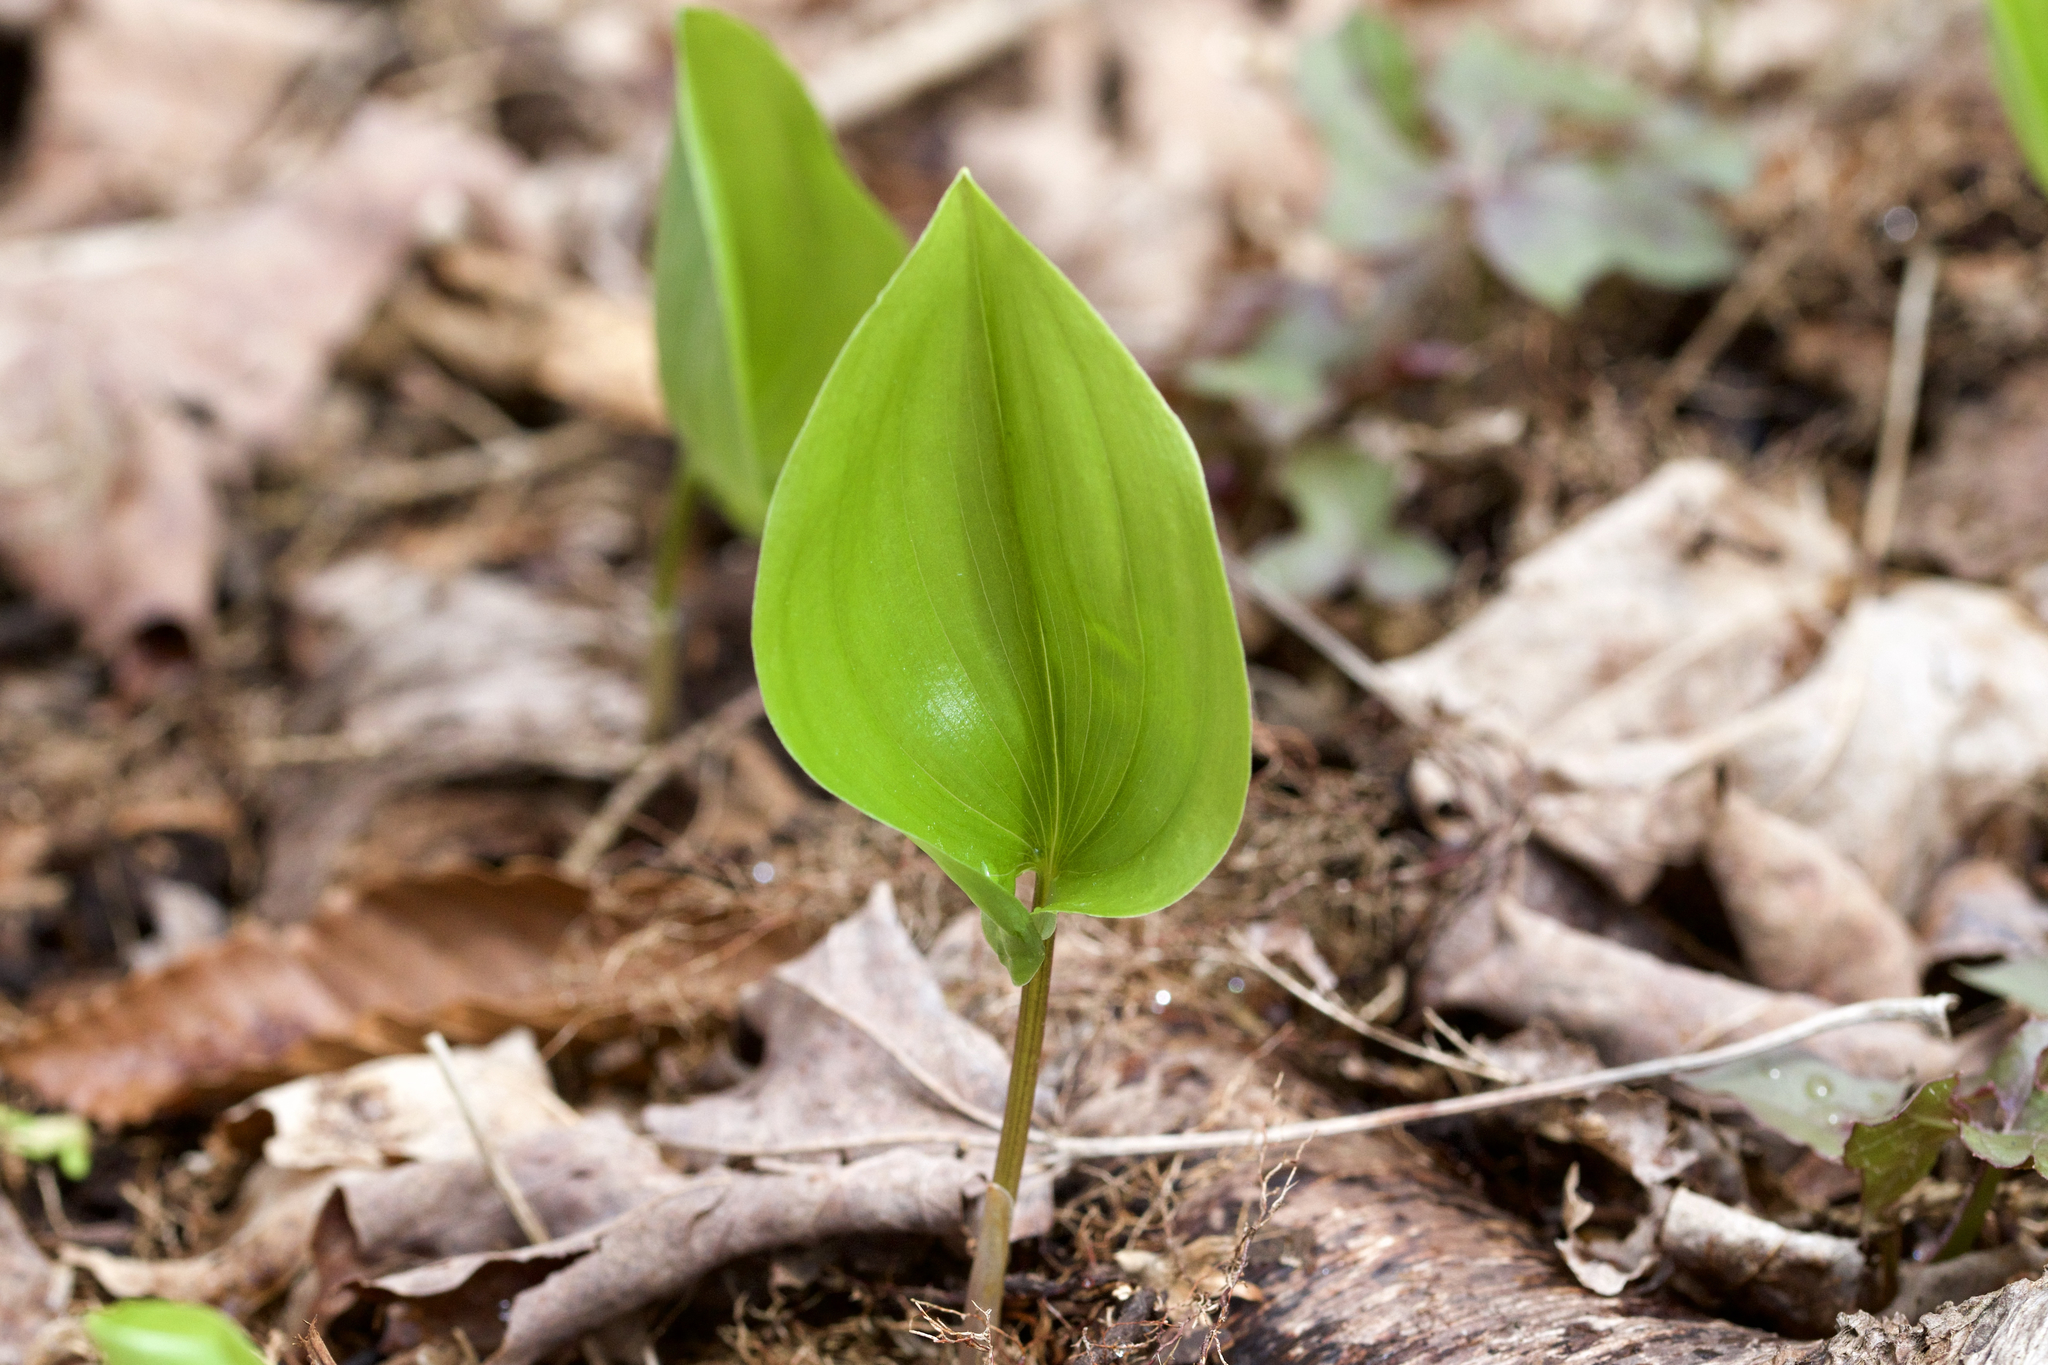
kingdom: Plantae
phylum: Tracheophyta
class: Liliopsida
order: Asparagales
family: Asparagaceae
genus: Maianthemum
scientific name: Maianthemum canadense
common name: False lily-of-the-valley
